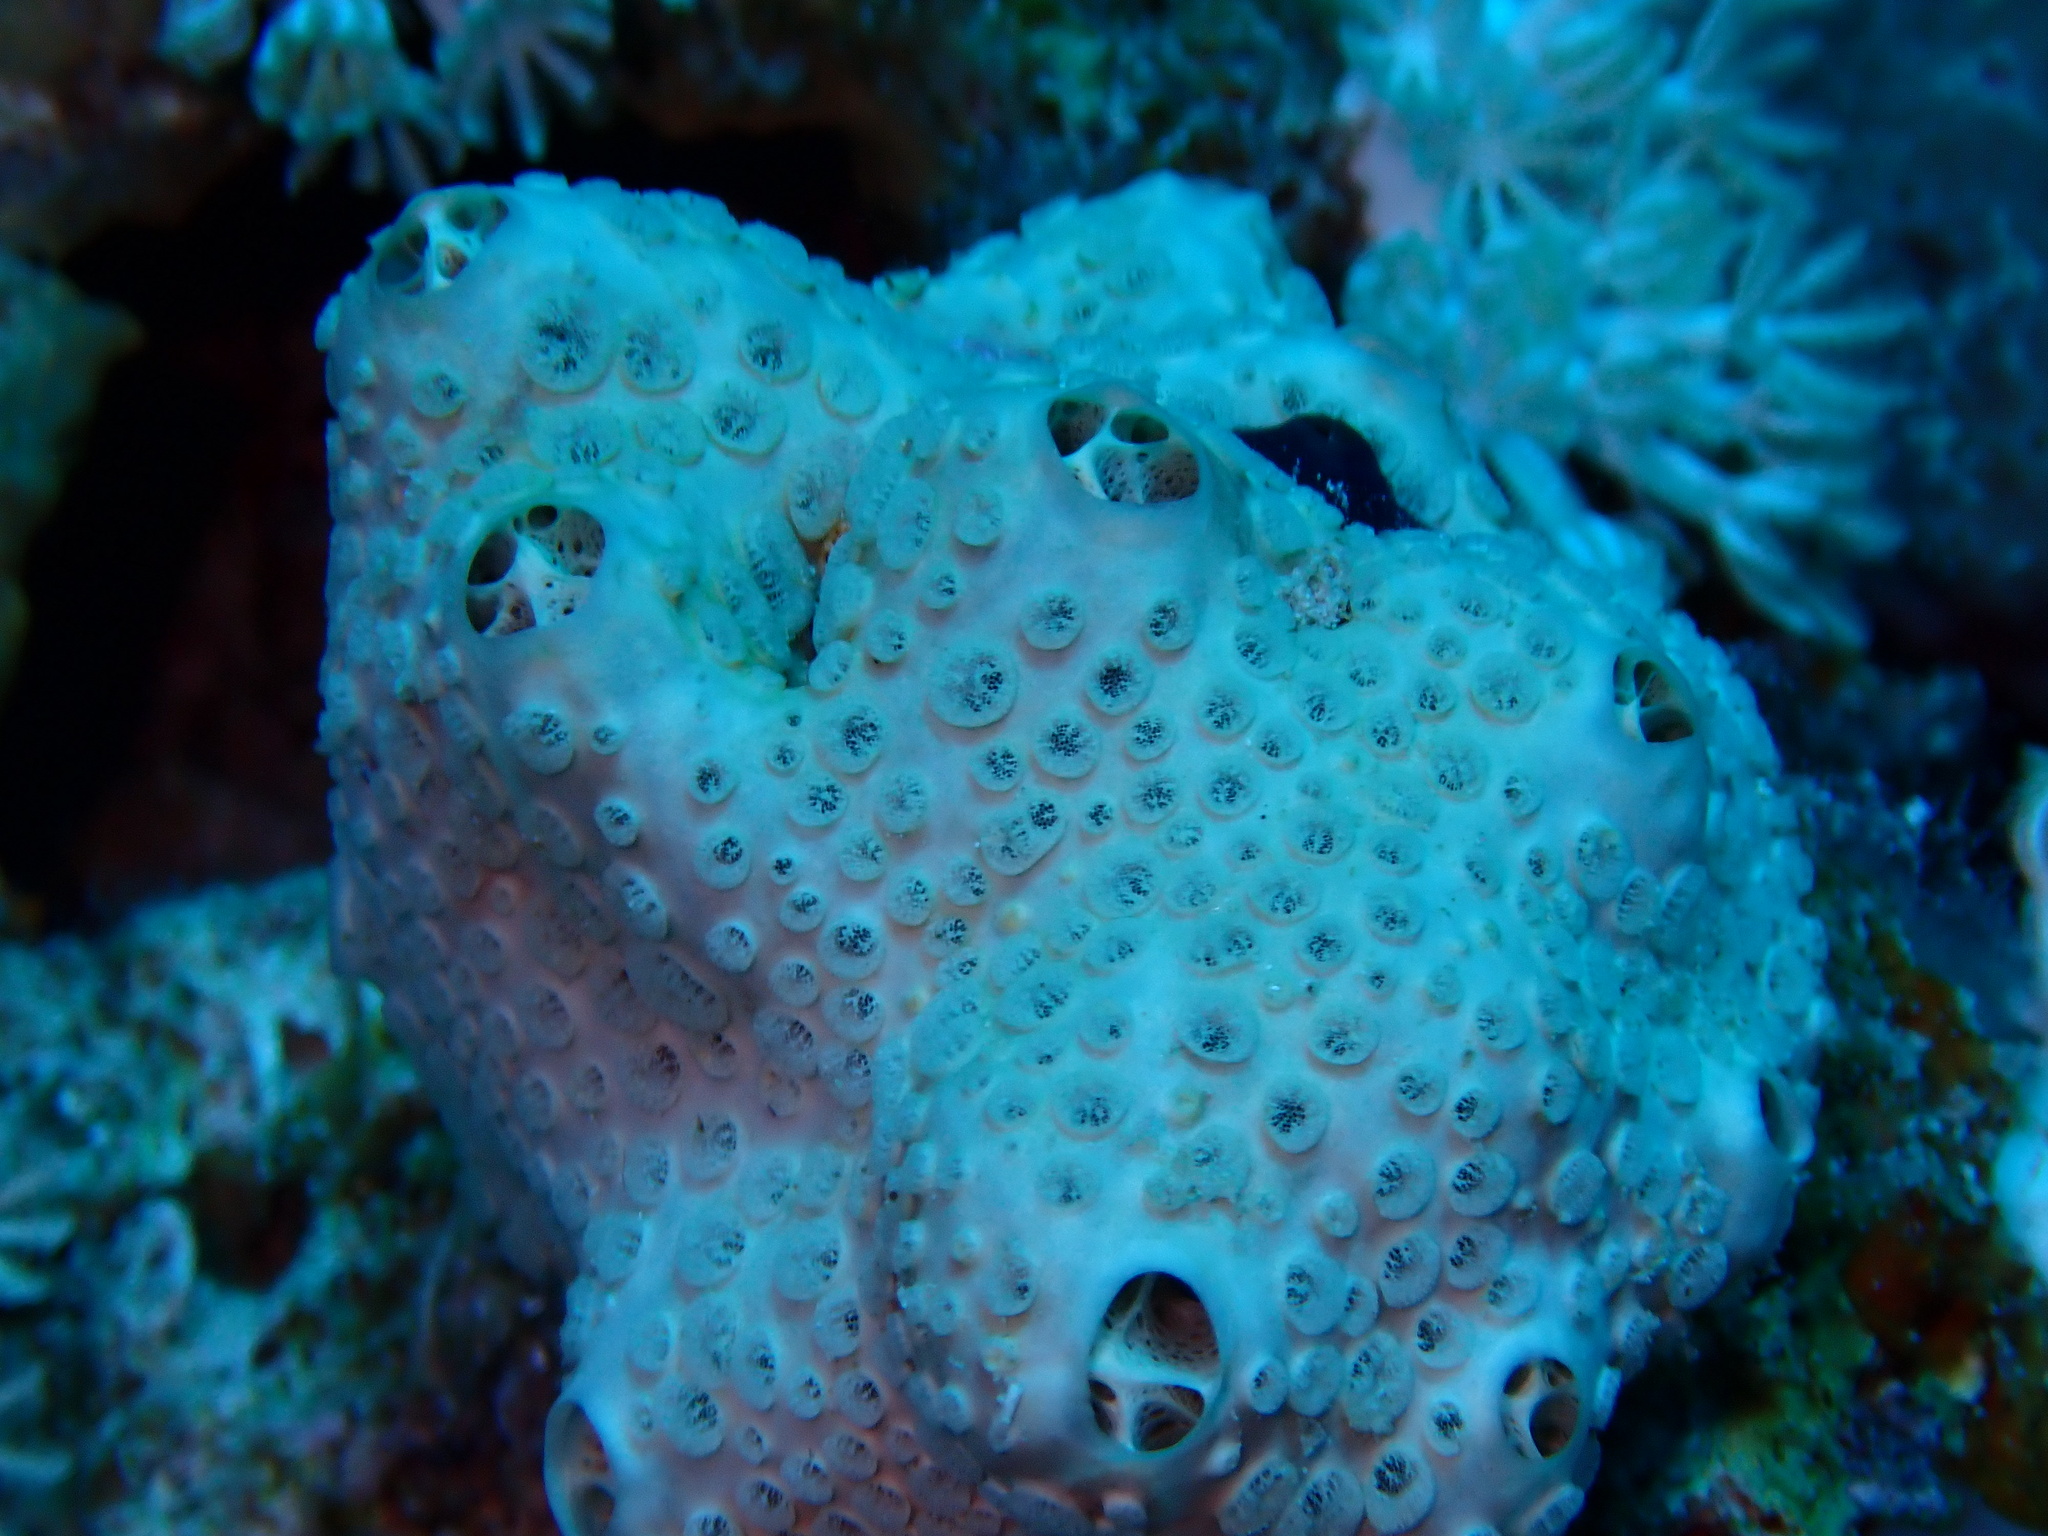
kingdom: Animalia
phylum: Porifera
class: Demospongiae
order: Poecilosclerida
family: Crellidae
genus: Crella
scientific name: Crella cyathophora
